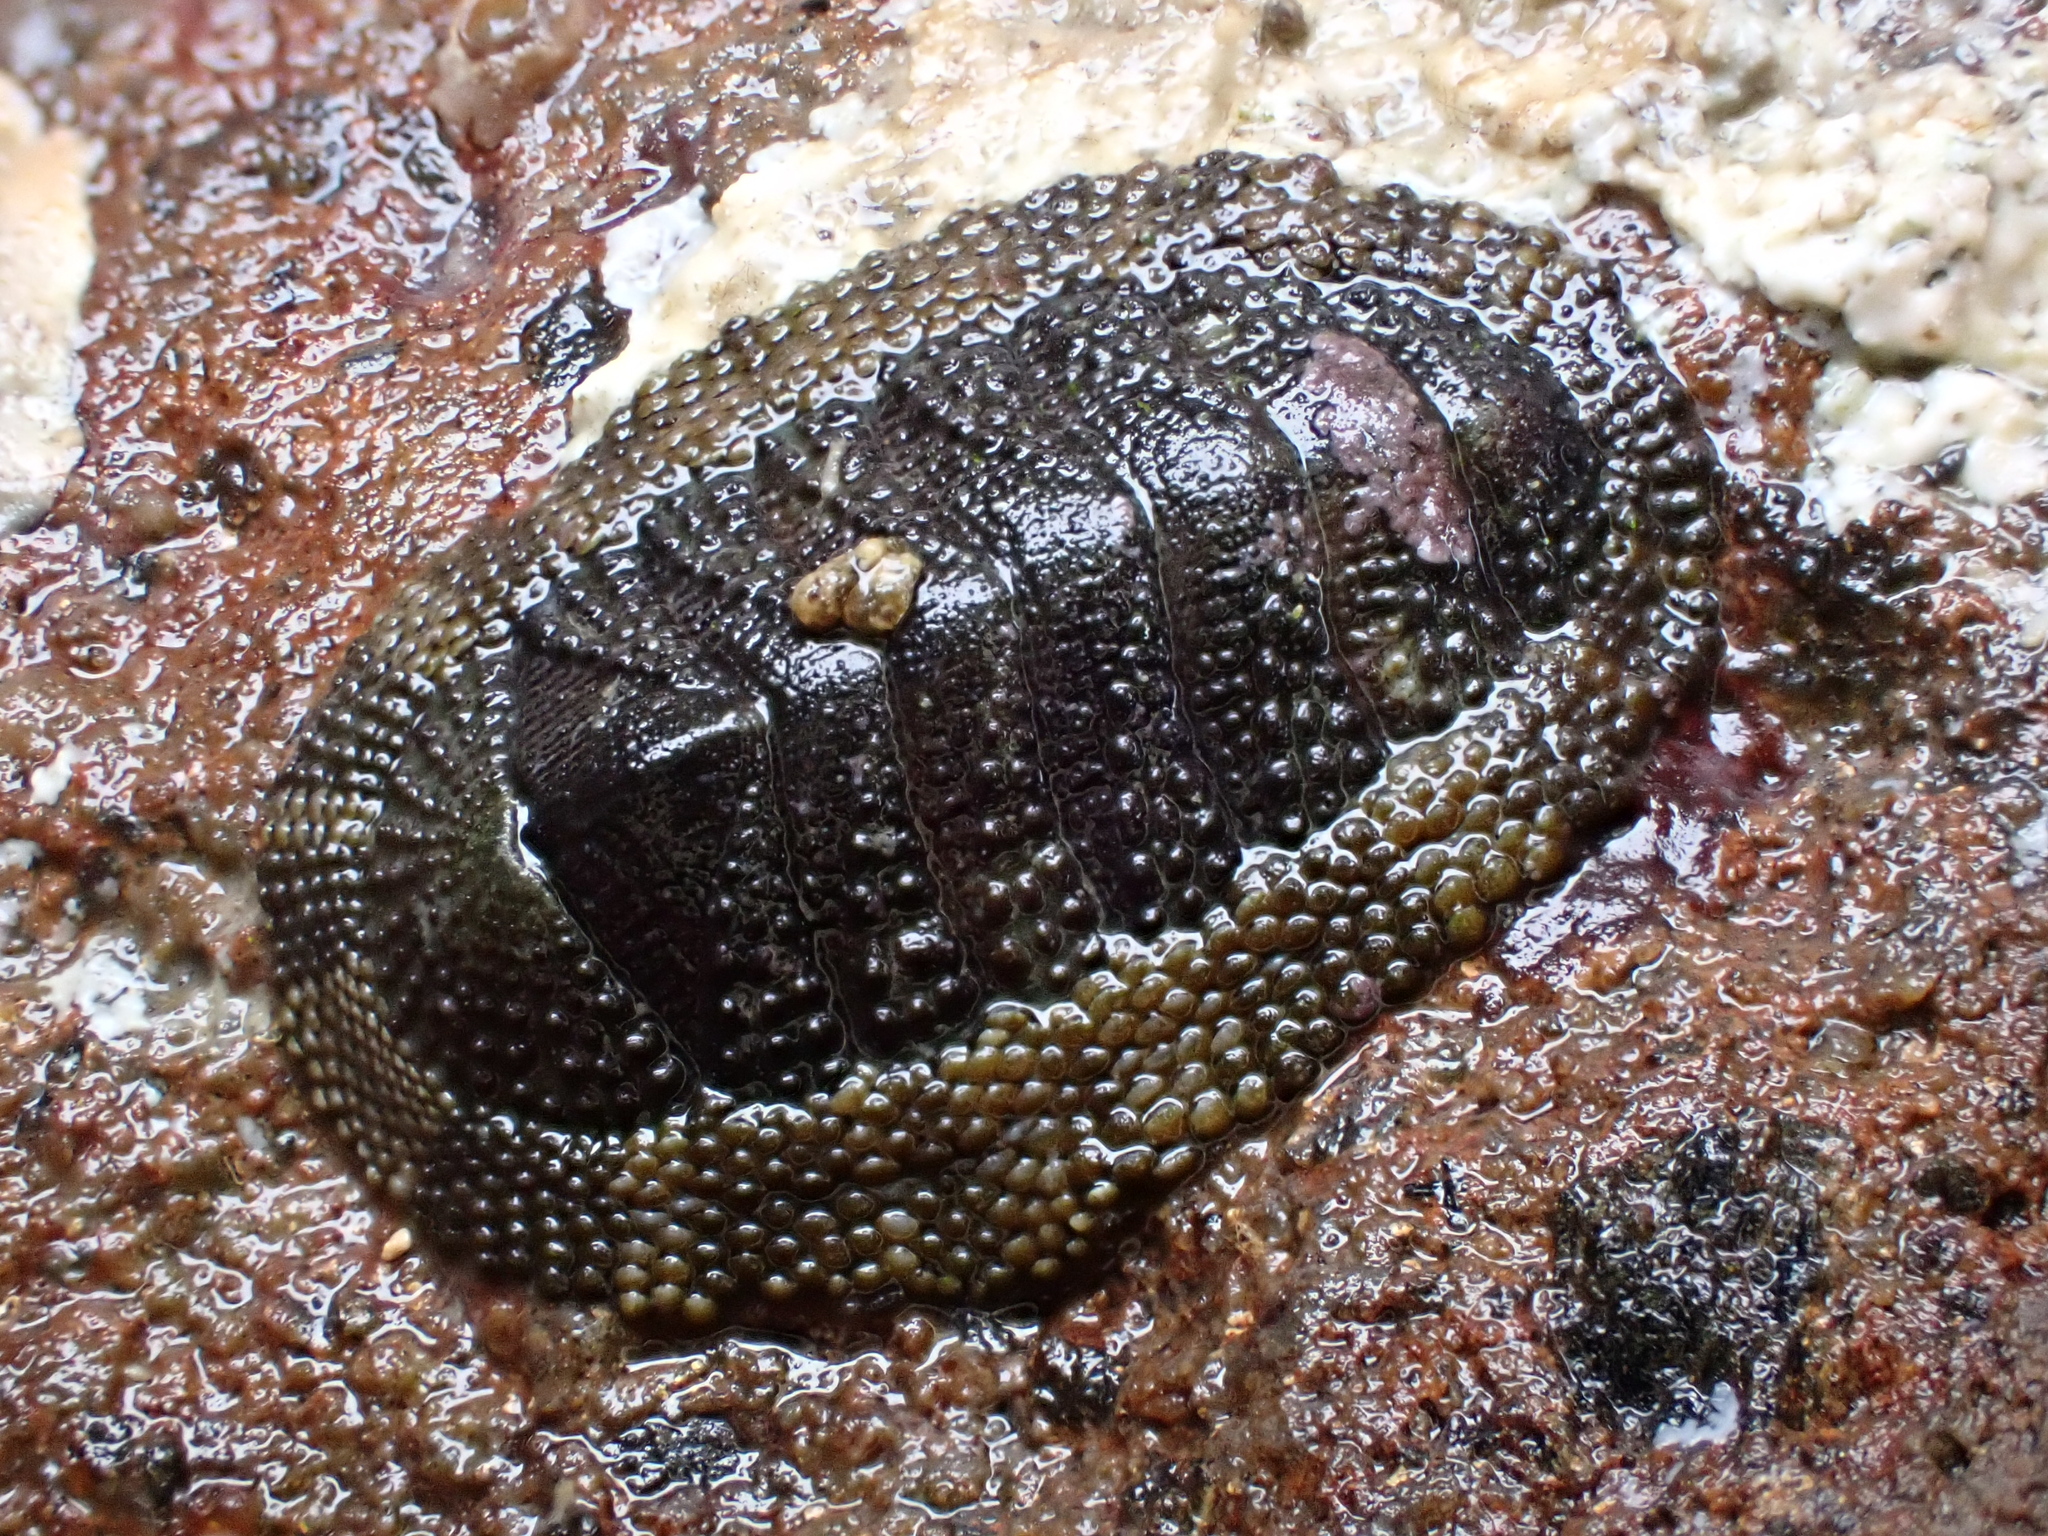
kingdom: Animalia
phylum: Mollusca
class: Polyplacophora
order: Chitonida
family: Chitonidae
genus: Sypharochiton
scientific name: Sypharochiton pelliserpentis
